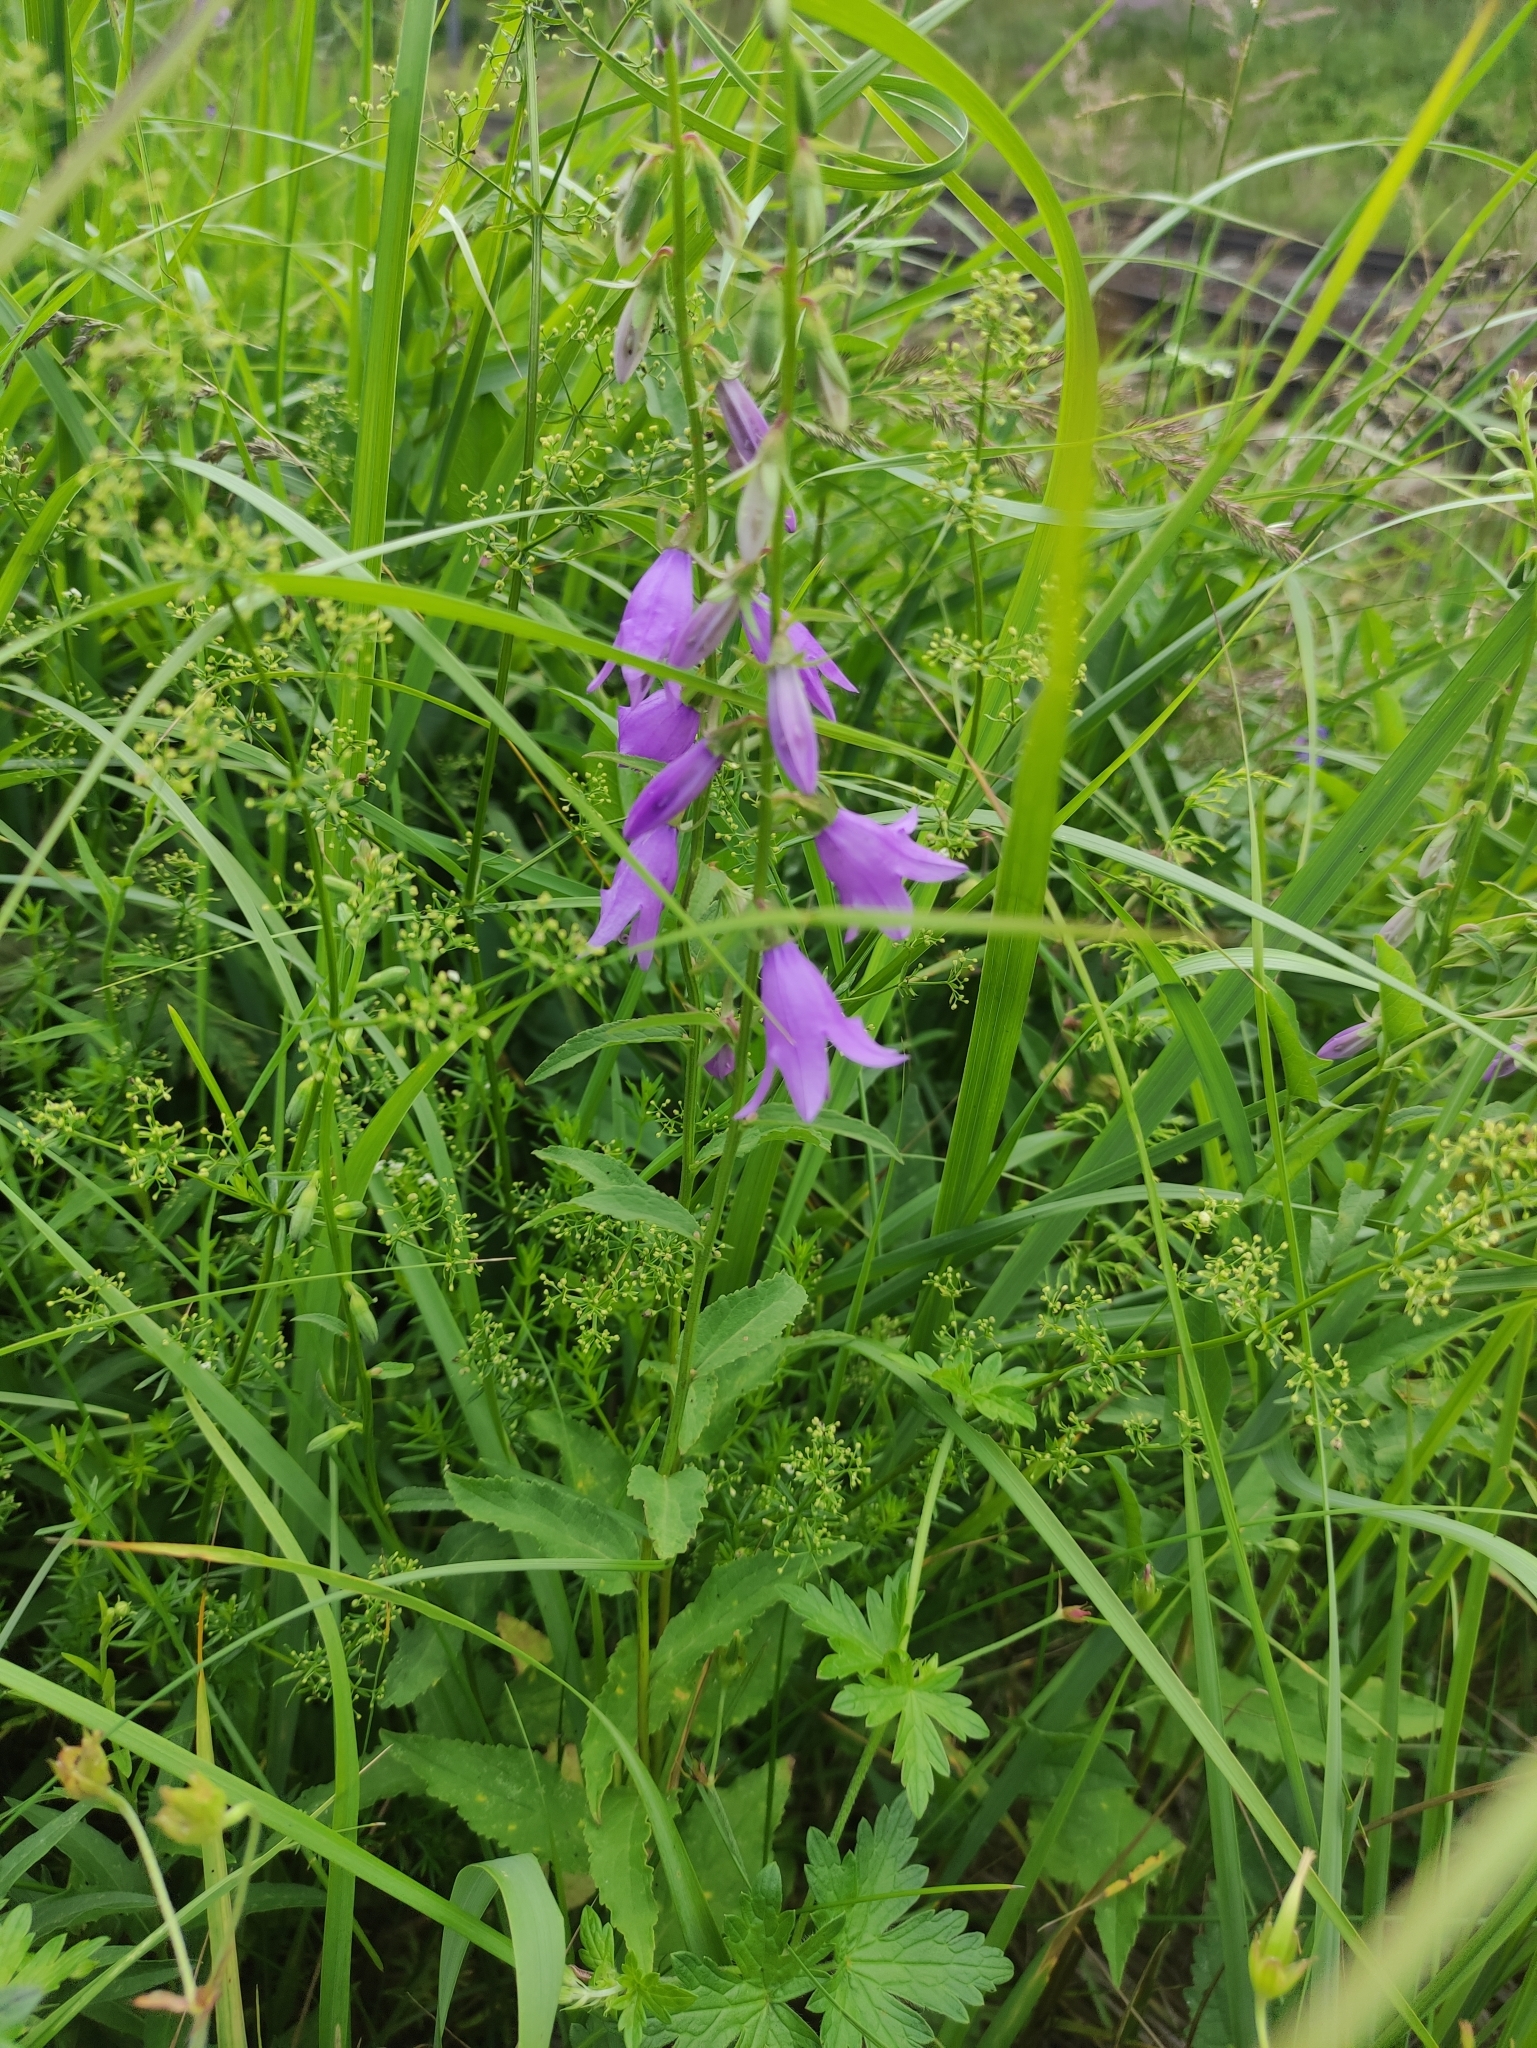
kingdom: Plantae
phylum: Tracheophyta
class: Magnoliopsida
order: Asterales
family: Campanulaceae
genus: Campanula
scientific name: Campanula rapunculoides
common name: Creeping bellflower
